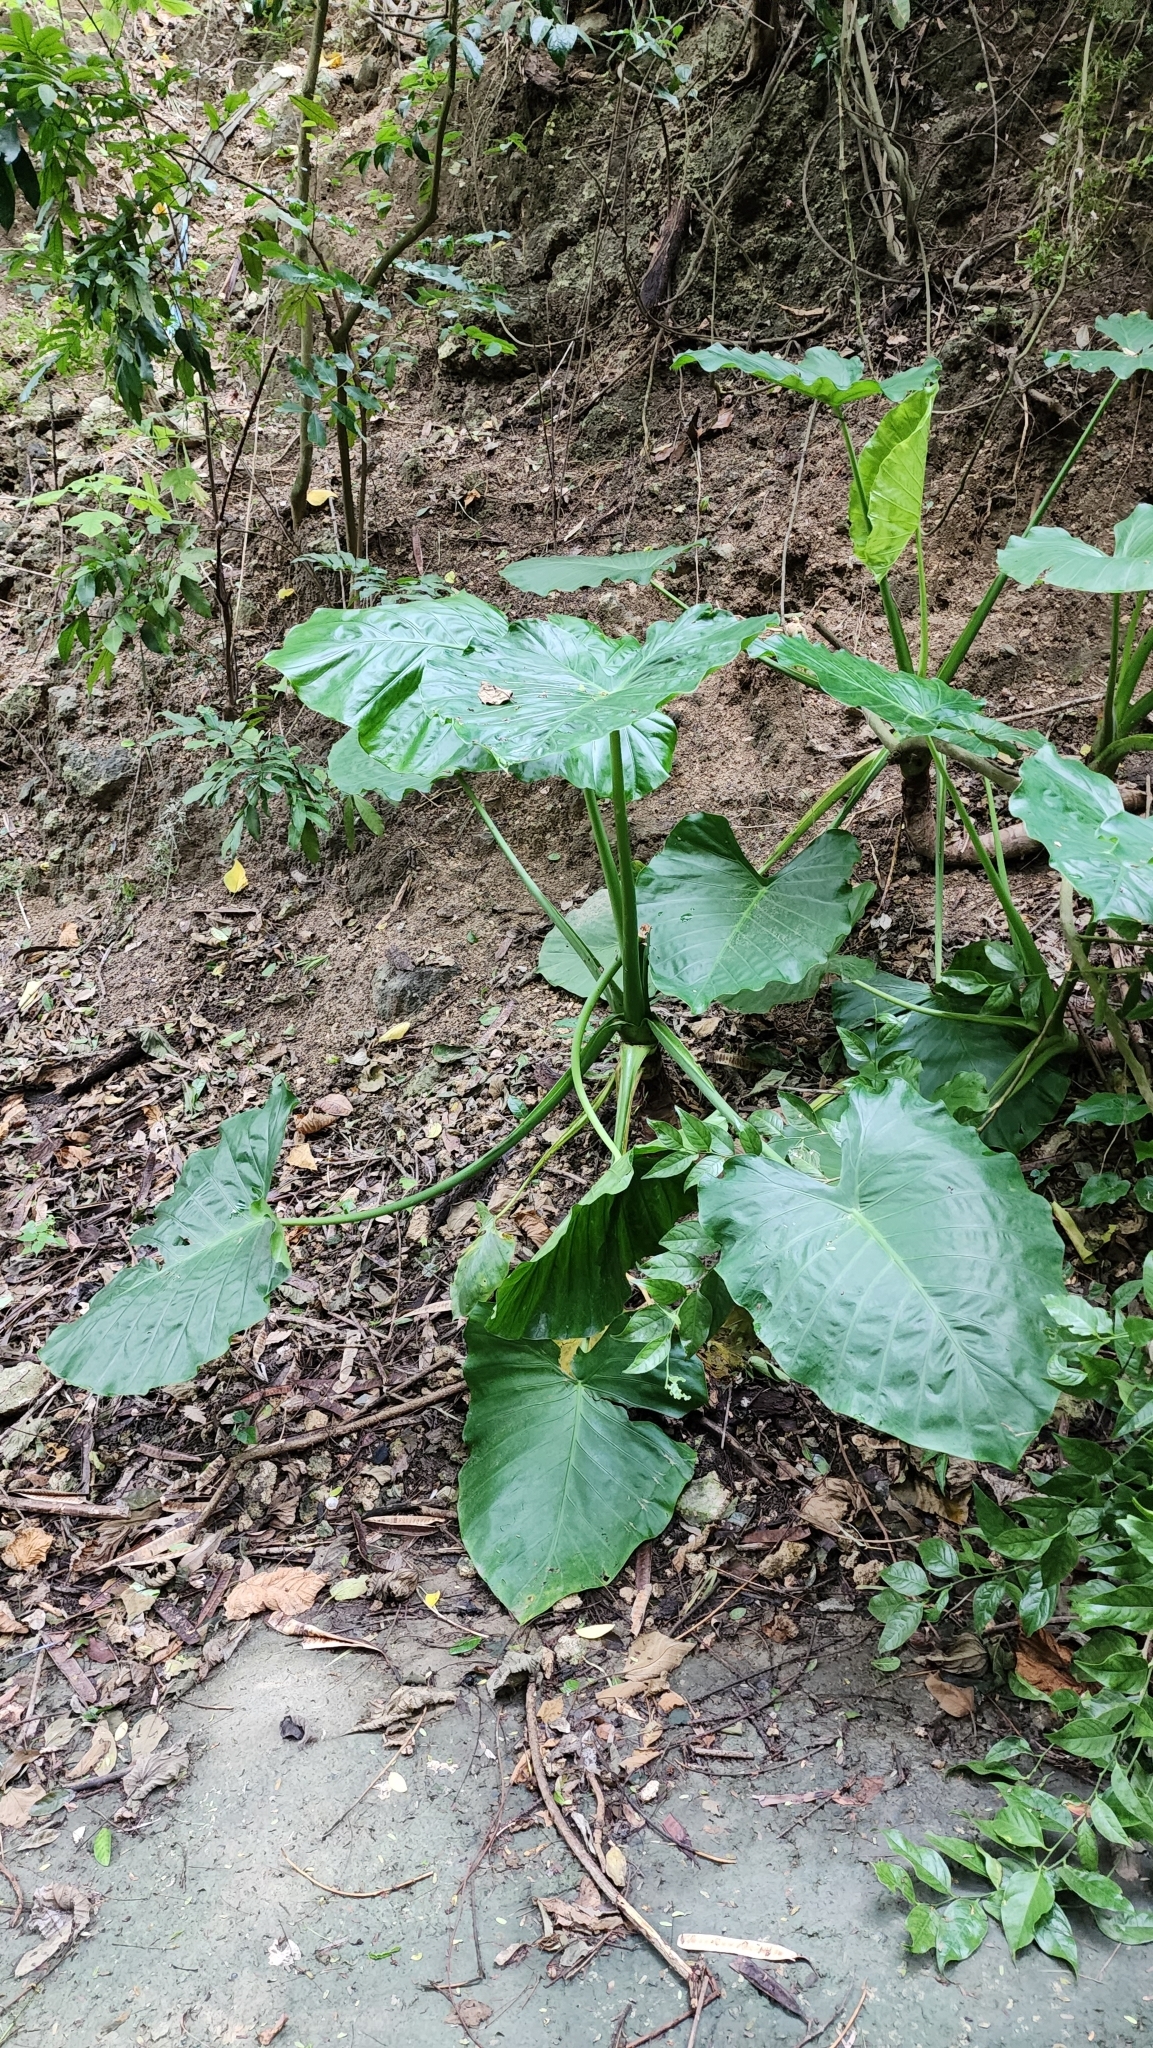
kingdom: Plantae
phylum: Tracheophyta
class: Liliopsida
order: Alismatales
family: Araceae
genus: Alocasia
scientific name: Alocasia odora
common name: Asian taro
